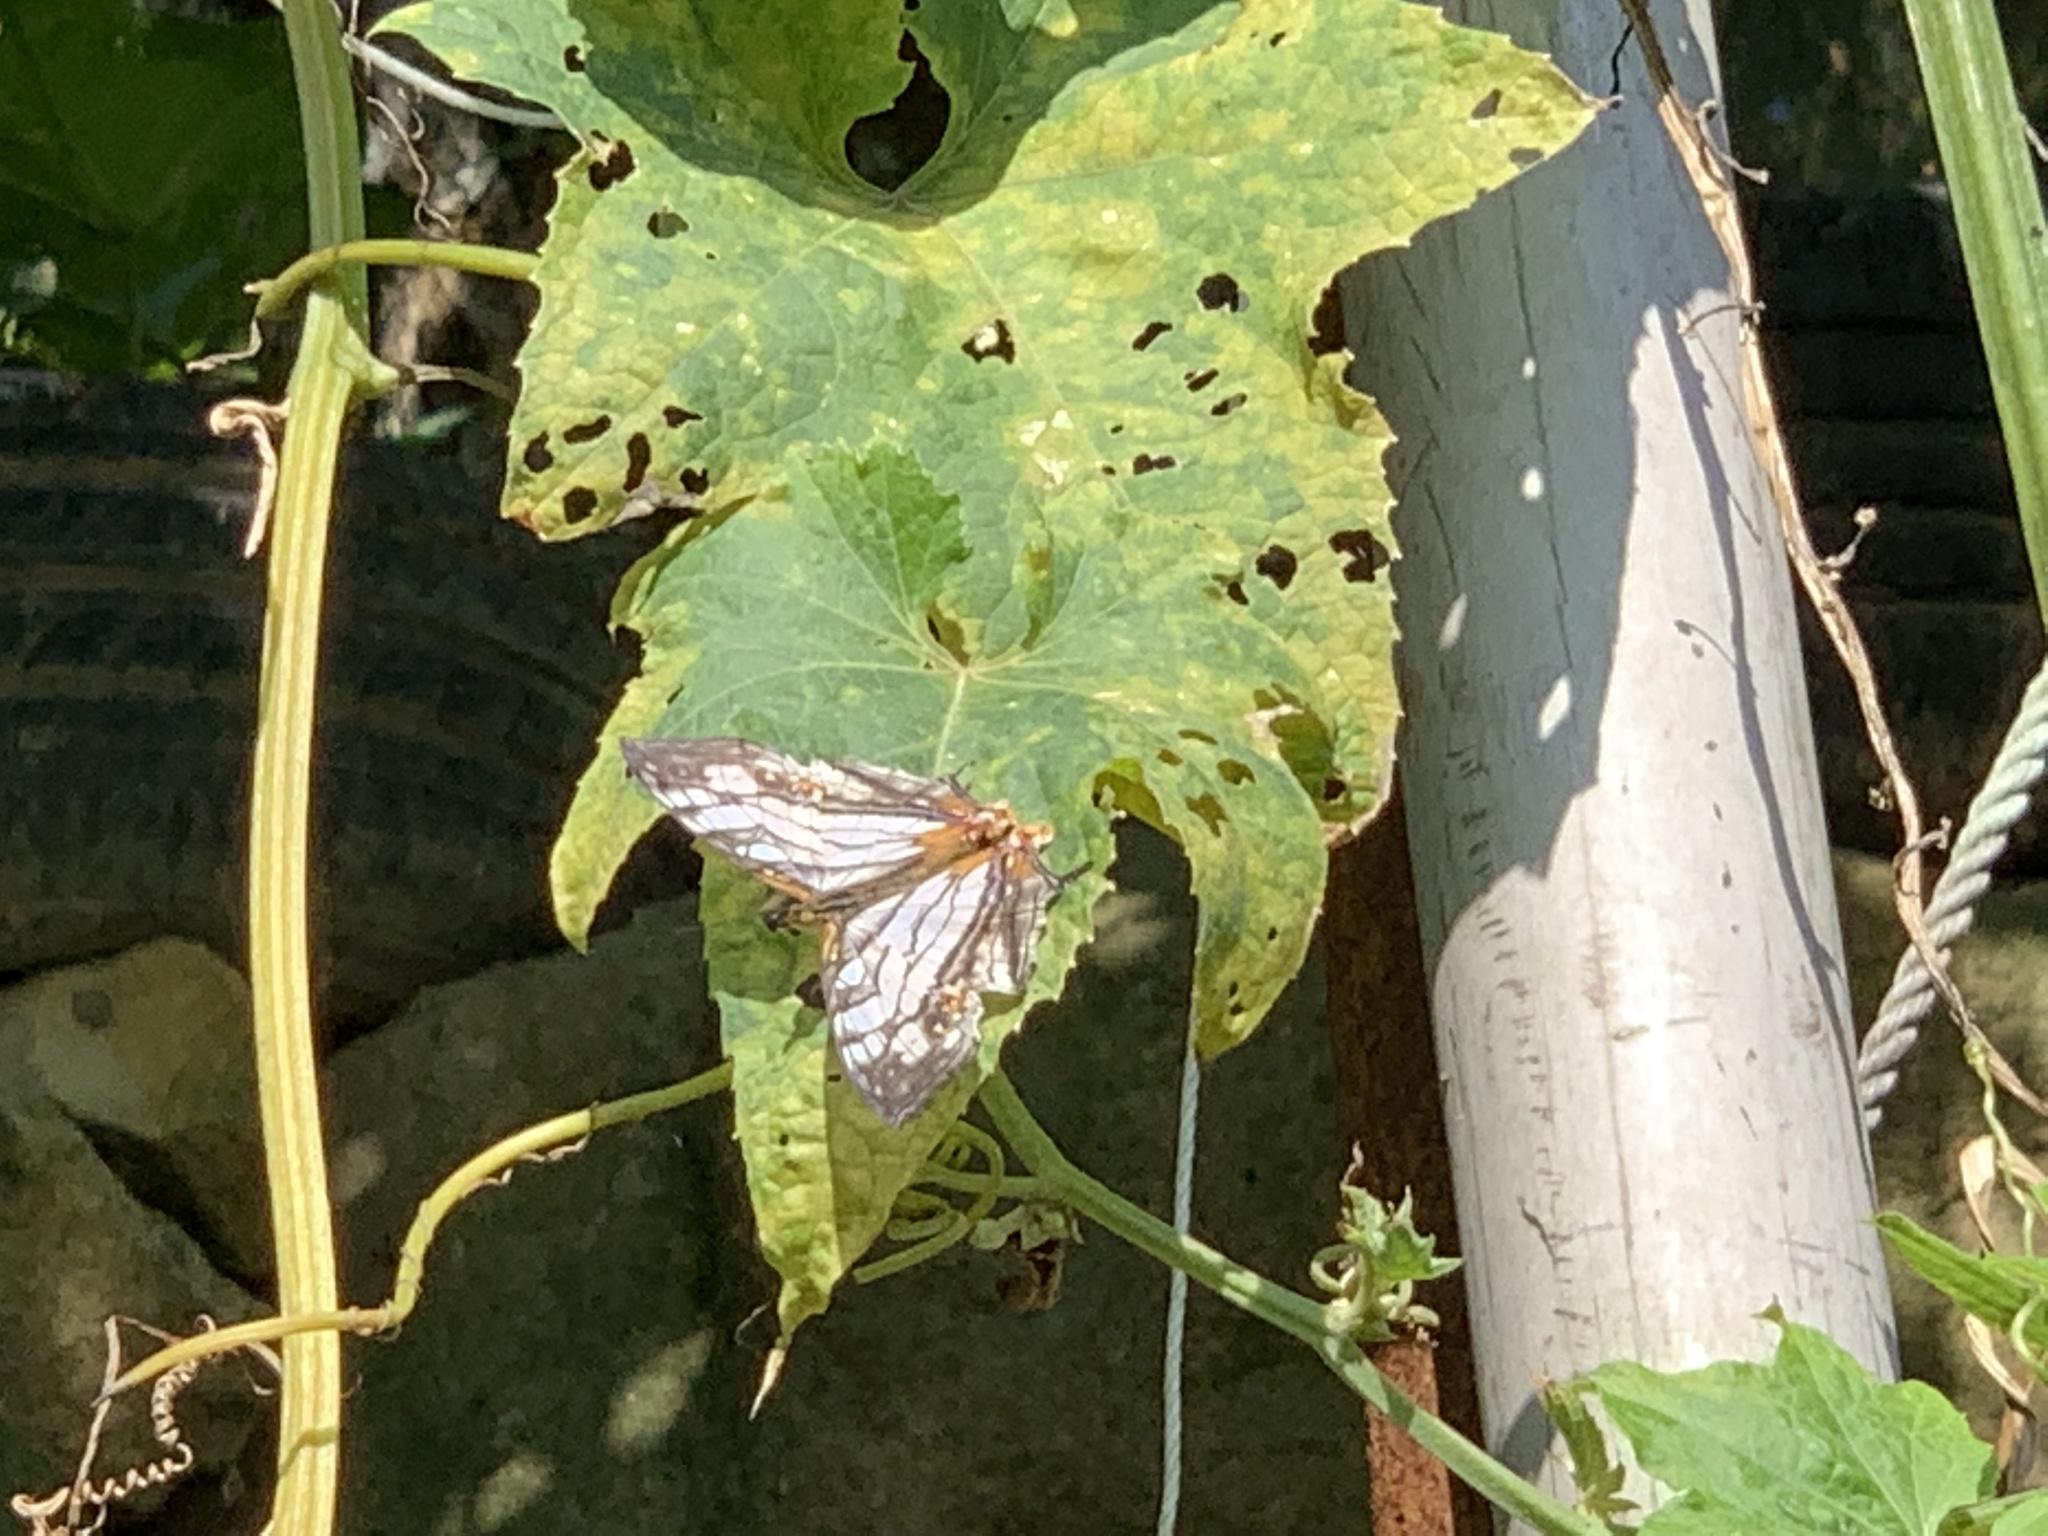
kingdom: Animalia
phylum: Arthropoda
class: Insecta
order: Lepidoptera
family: Nymphalidae
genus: Cyrestis
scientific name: Cyrestis thyodamas
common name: Common mapwing
